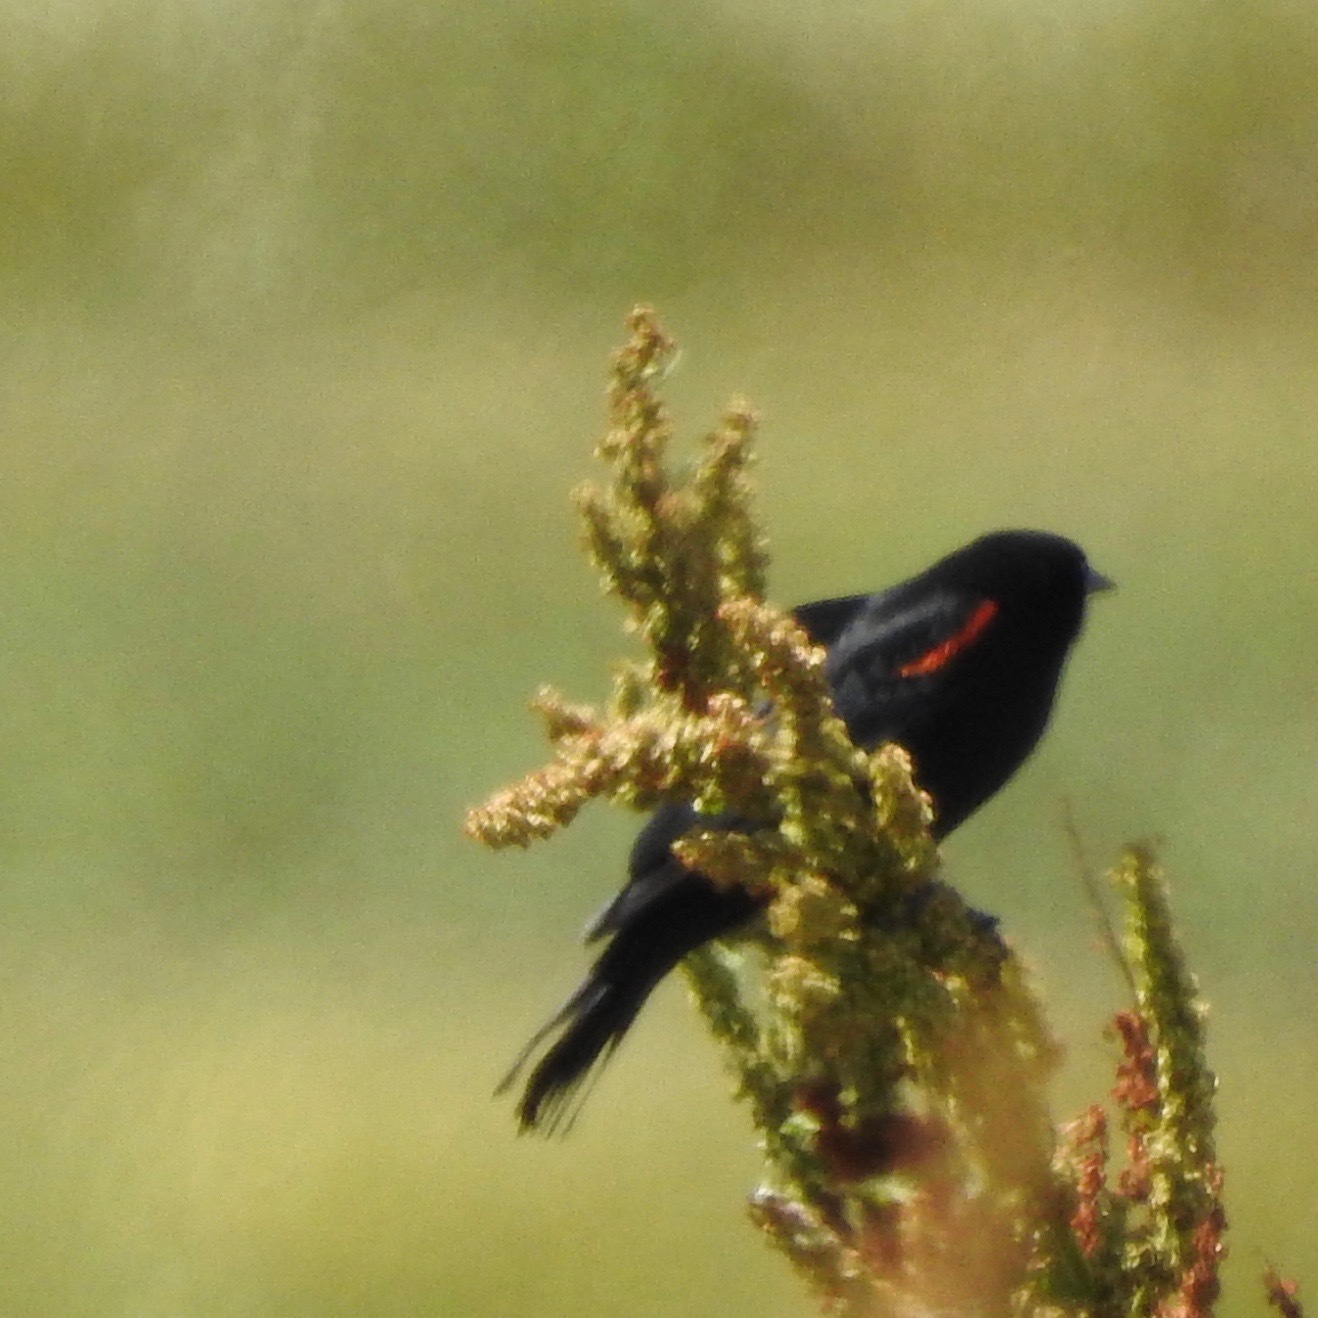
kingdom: Animalia
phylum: Chordata
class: Aves
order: Passeriformes
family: Icteridae
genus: Agelaius
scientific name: Agelaius phoeniceus
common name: Red-winged blackbird
